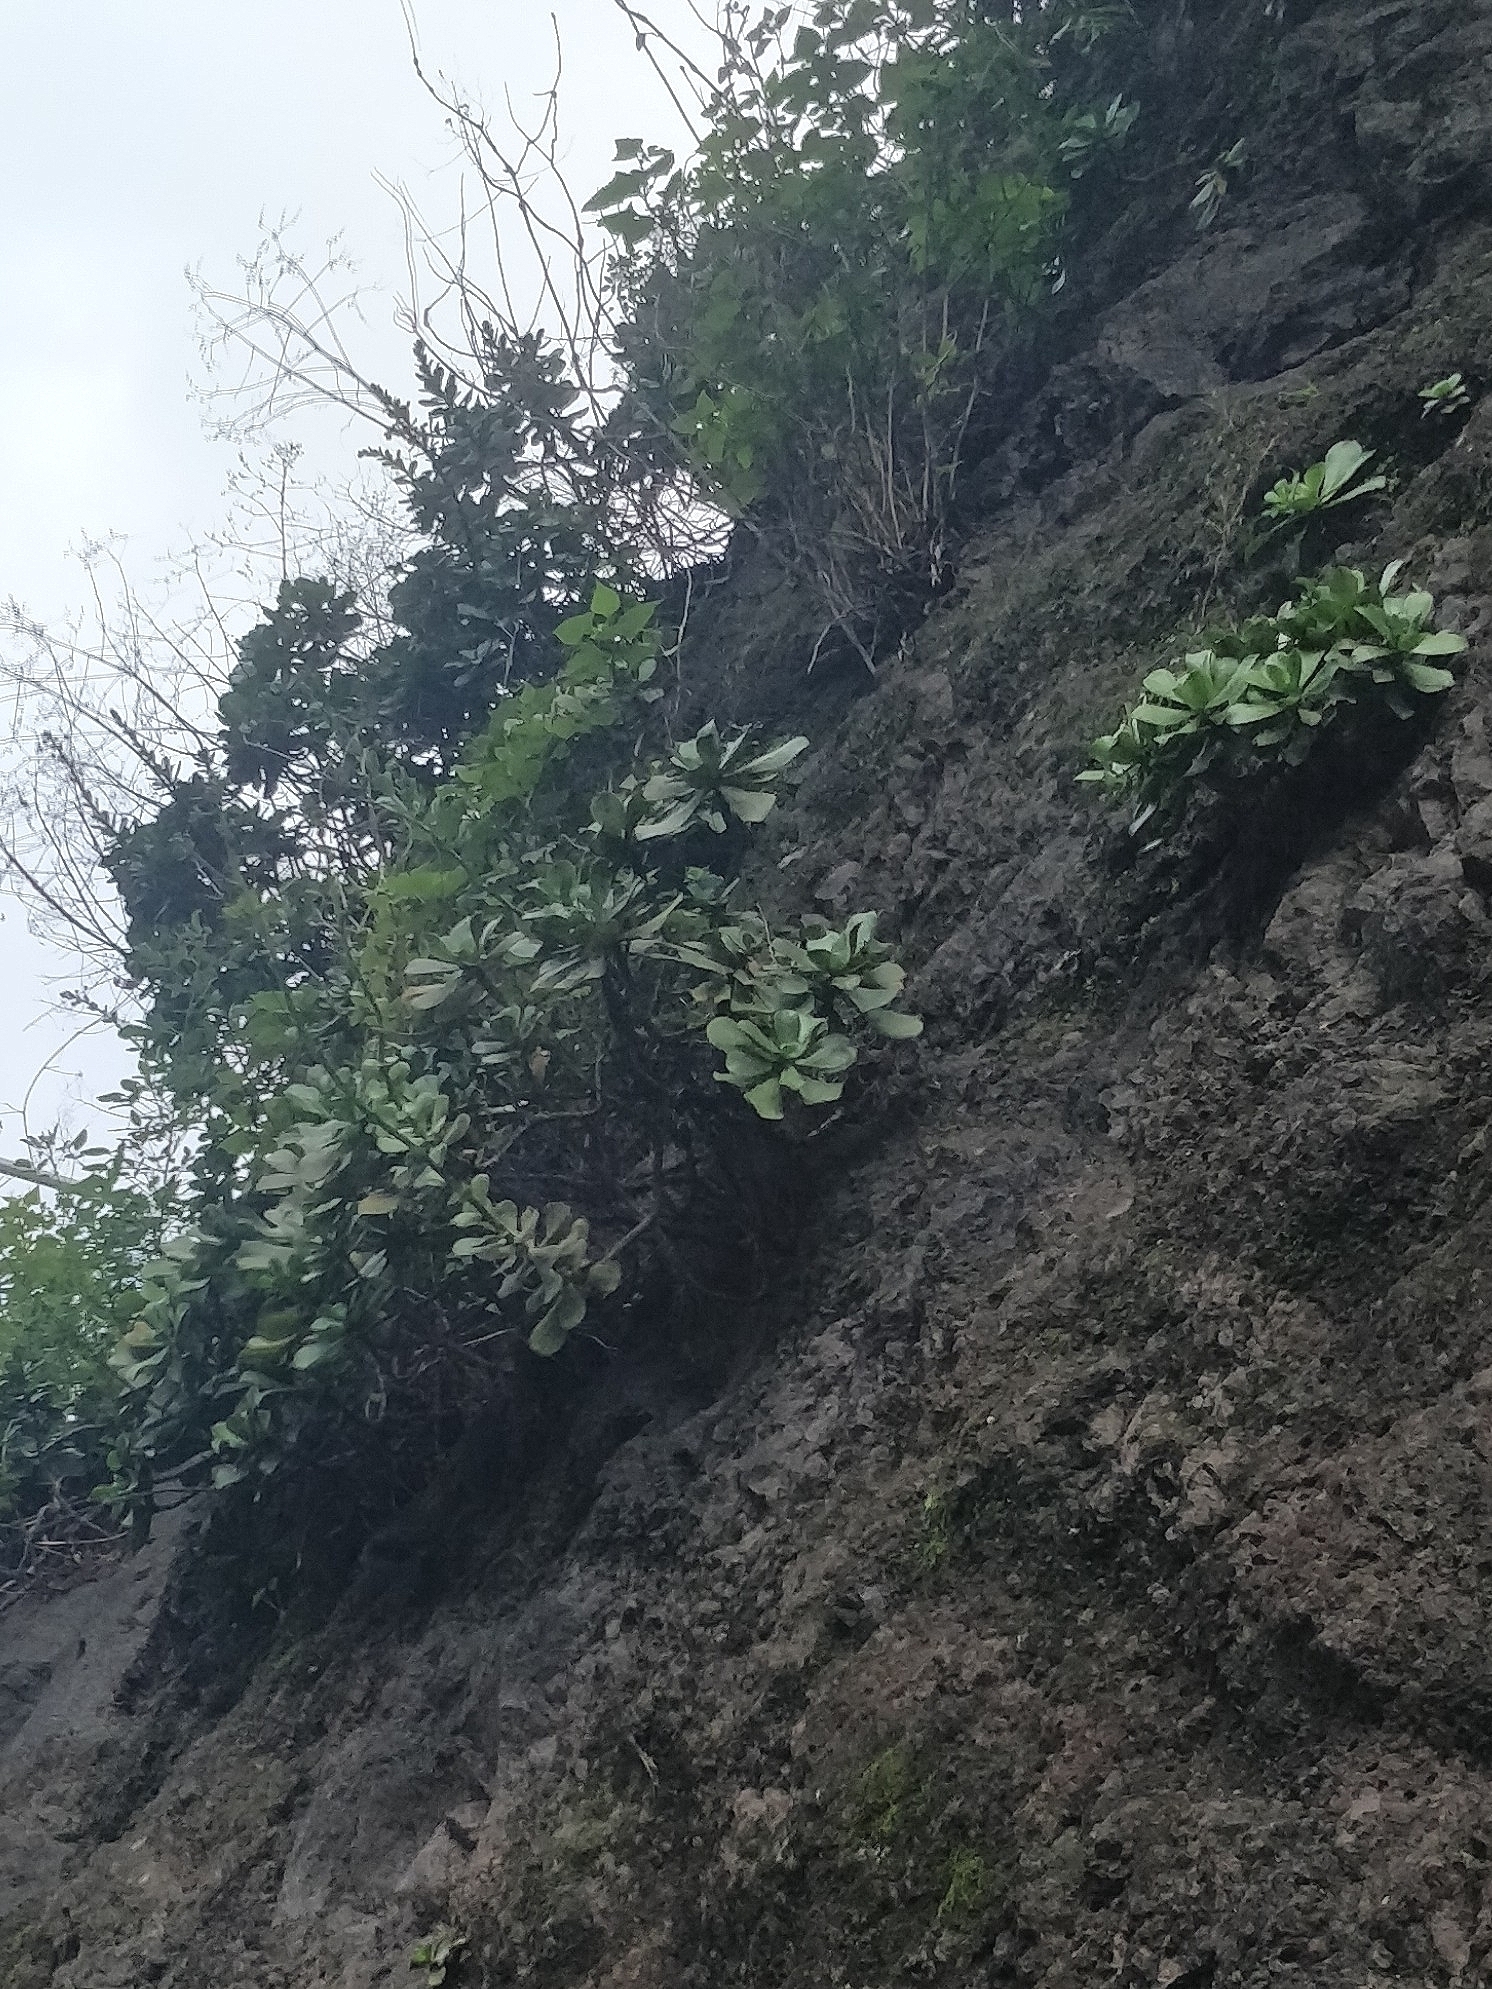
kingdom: Plantae
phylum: Tracheophyta
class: Magnoliopsida
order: Saxifragales
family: Crassulaceae
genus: Aeonium
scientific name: Aeonium glutinosum
